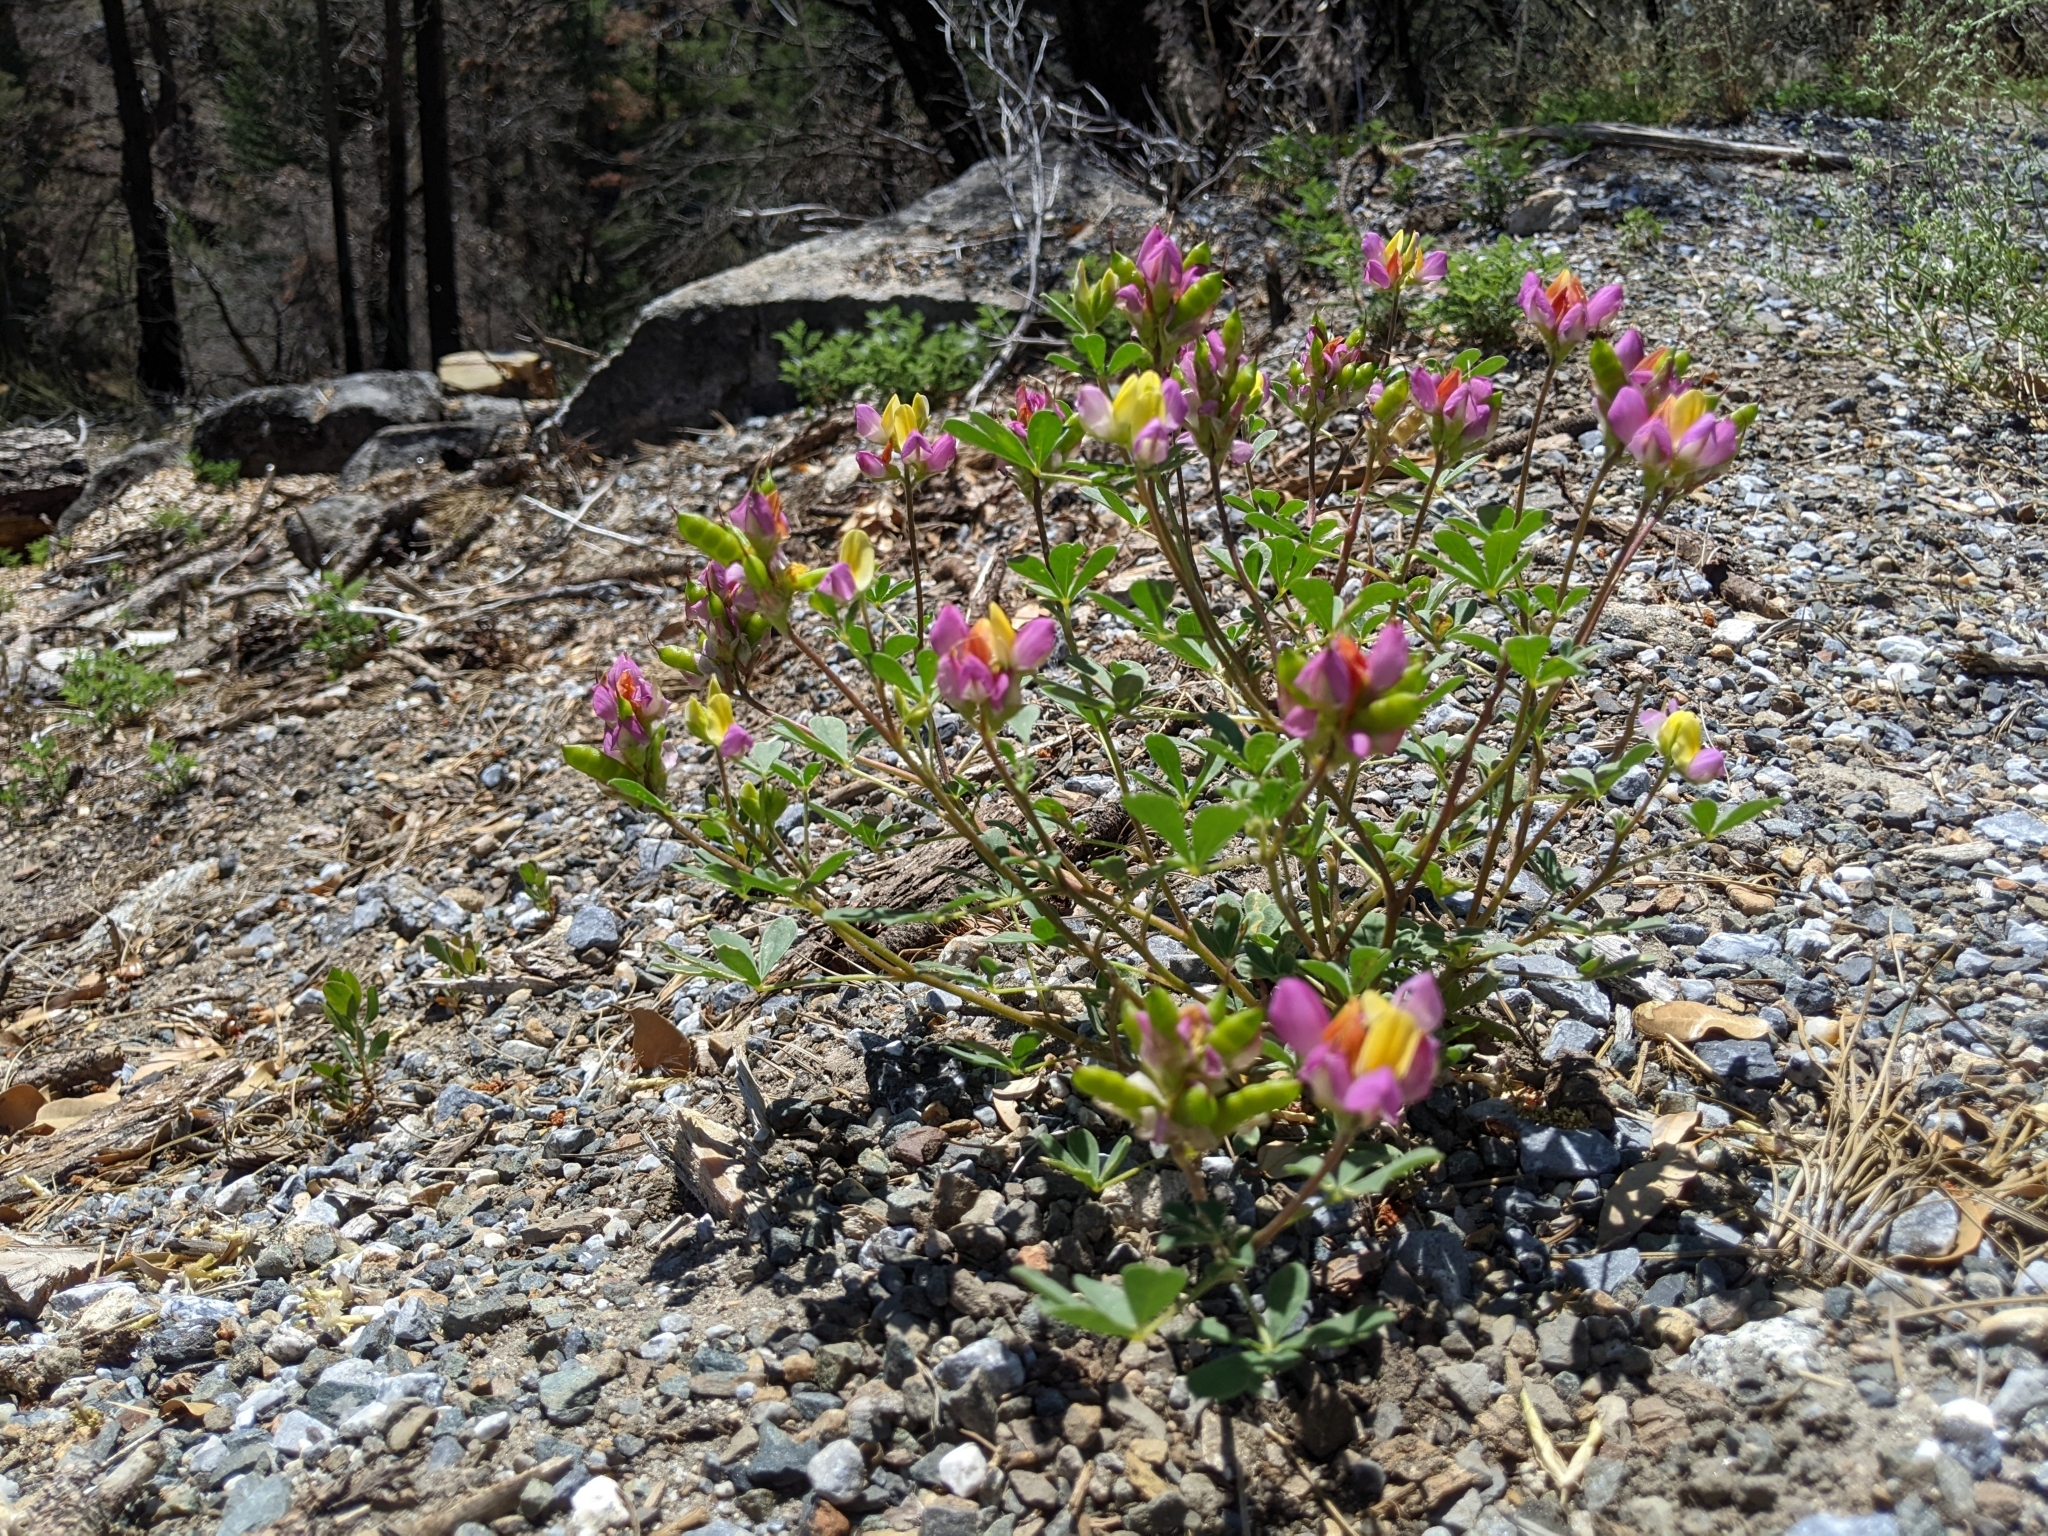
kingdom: Plantae
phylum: Tracheophyta
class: Magnoliopsida
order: Fabales
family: Fabaceae
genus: Lupinus
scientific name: Lupinus stiversii
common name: Harlequin lupine
